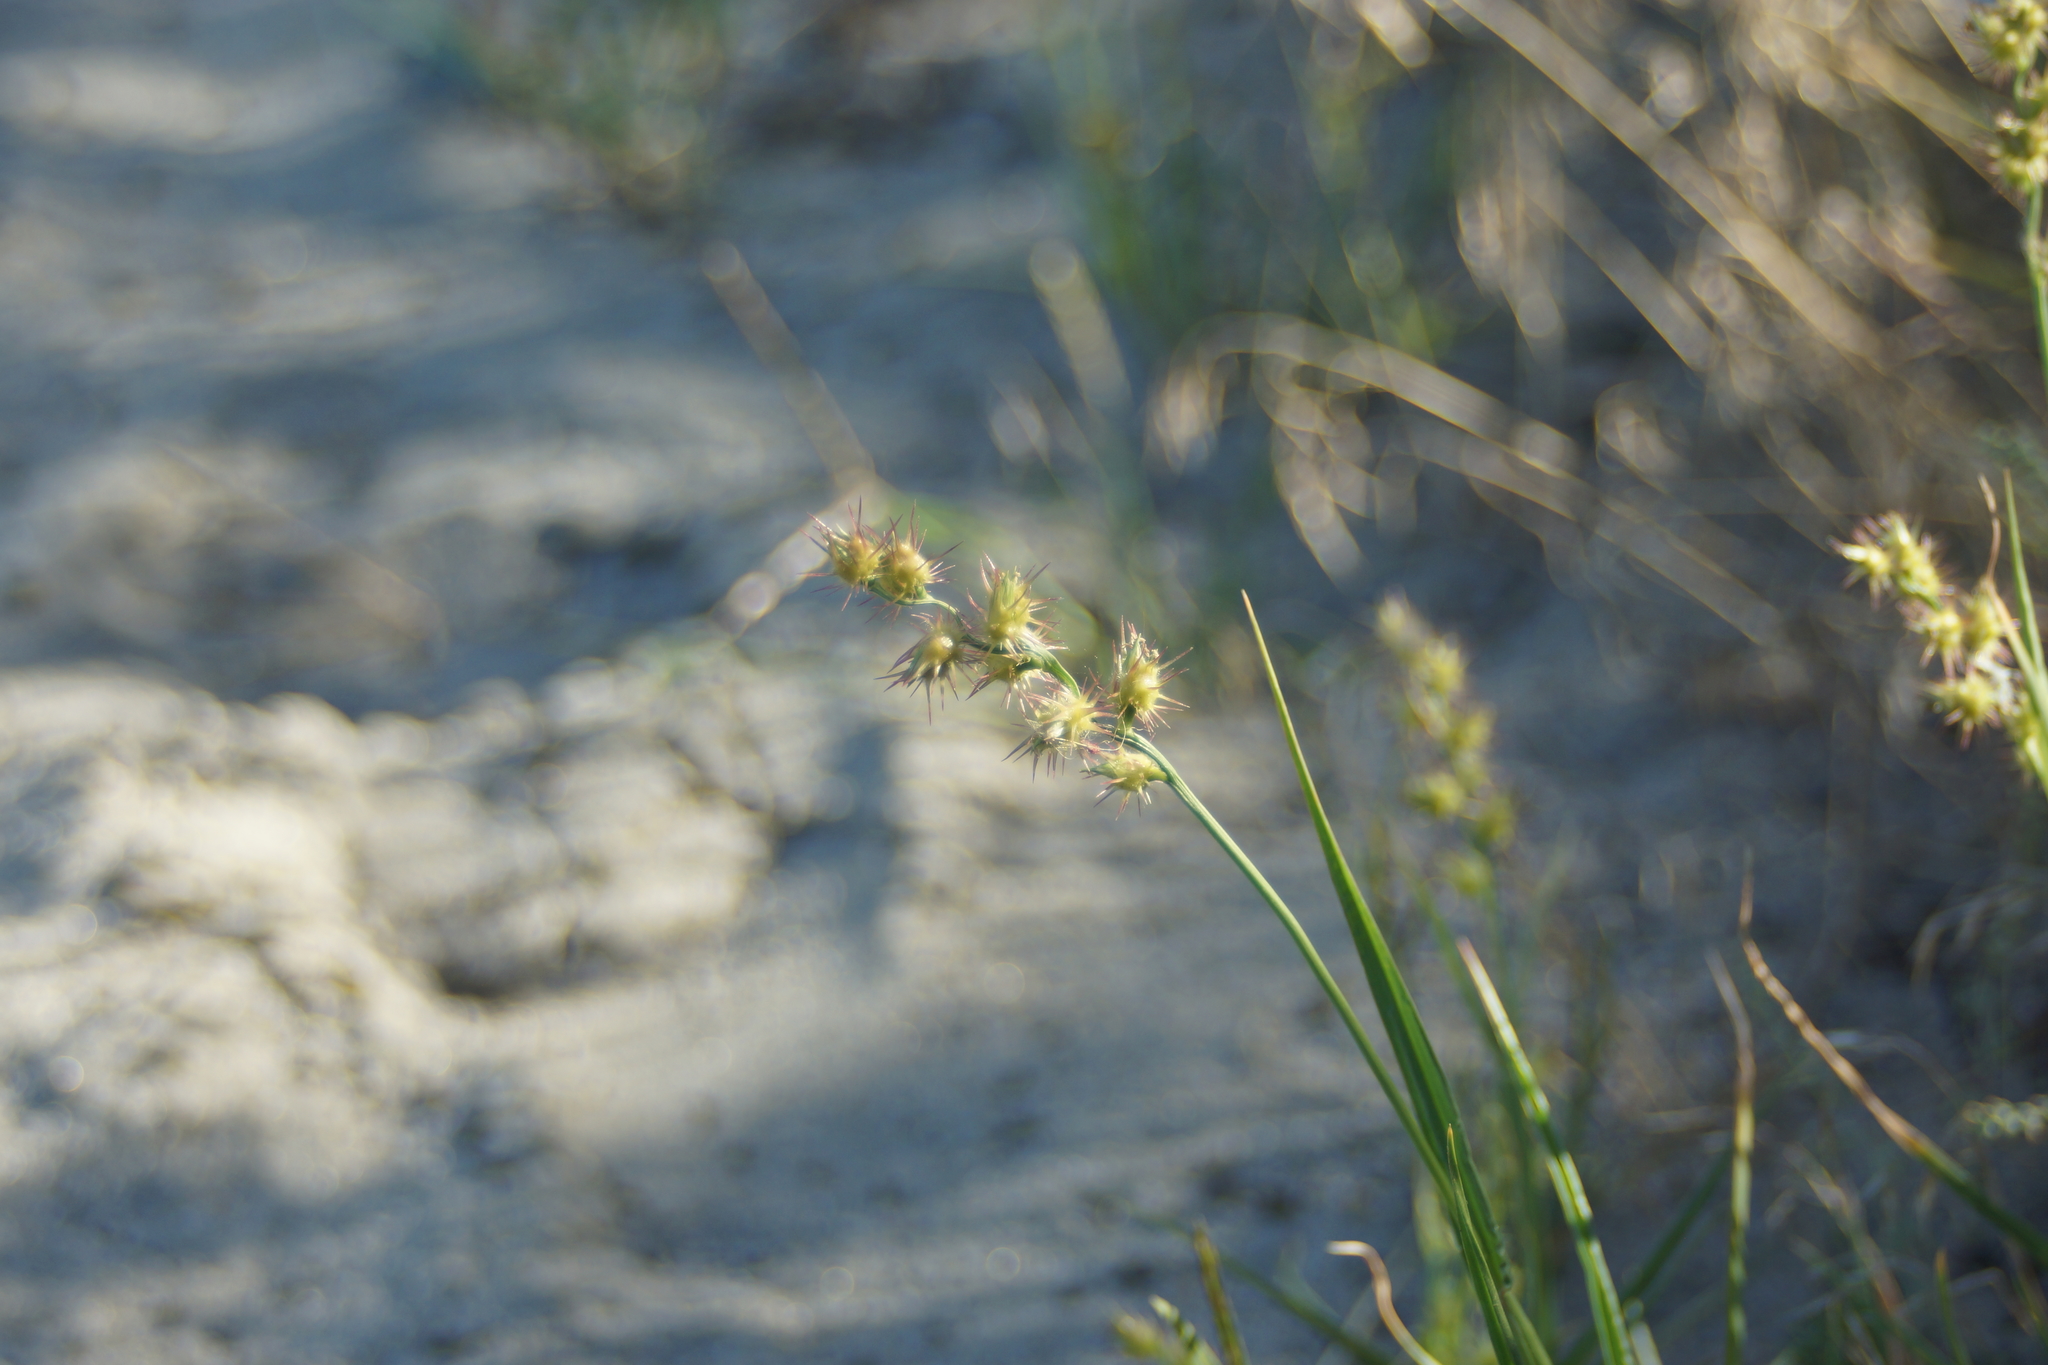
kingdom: Plantae
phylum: Tracheophyta
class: Liliopsida
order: Poales
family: Poaceae
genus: Cenchrus
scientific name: Cenchrus longispinus
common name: Mat sandbur
